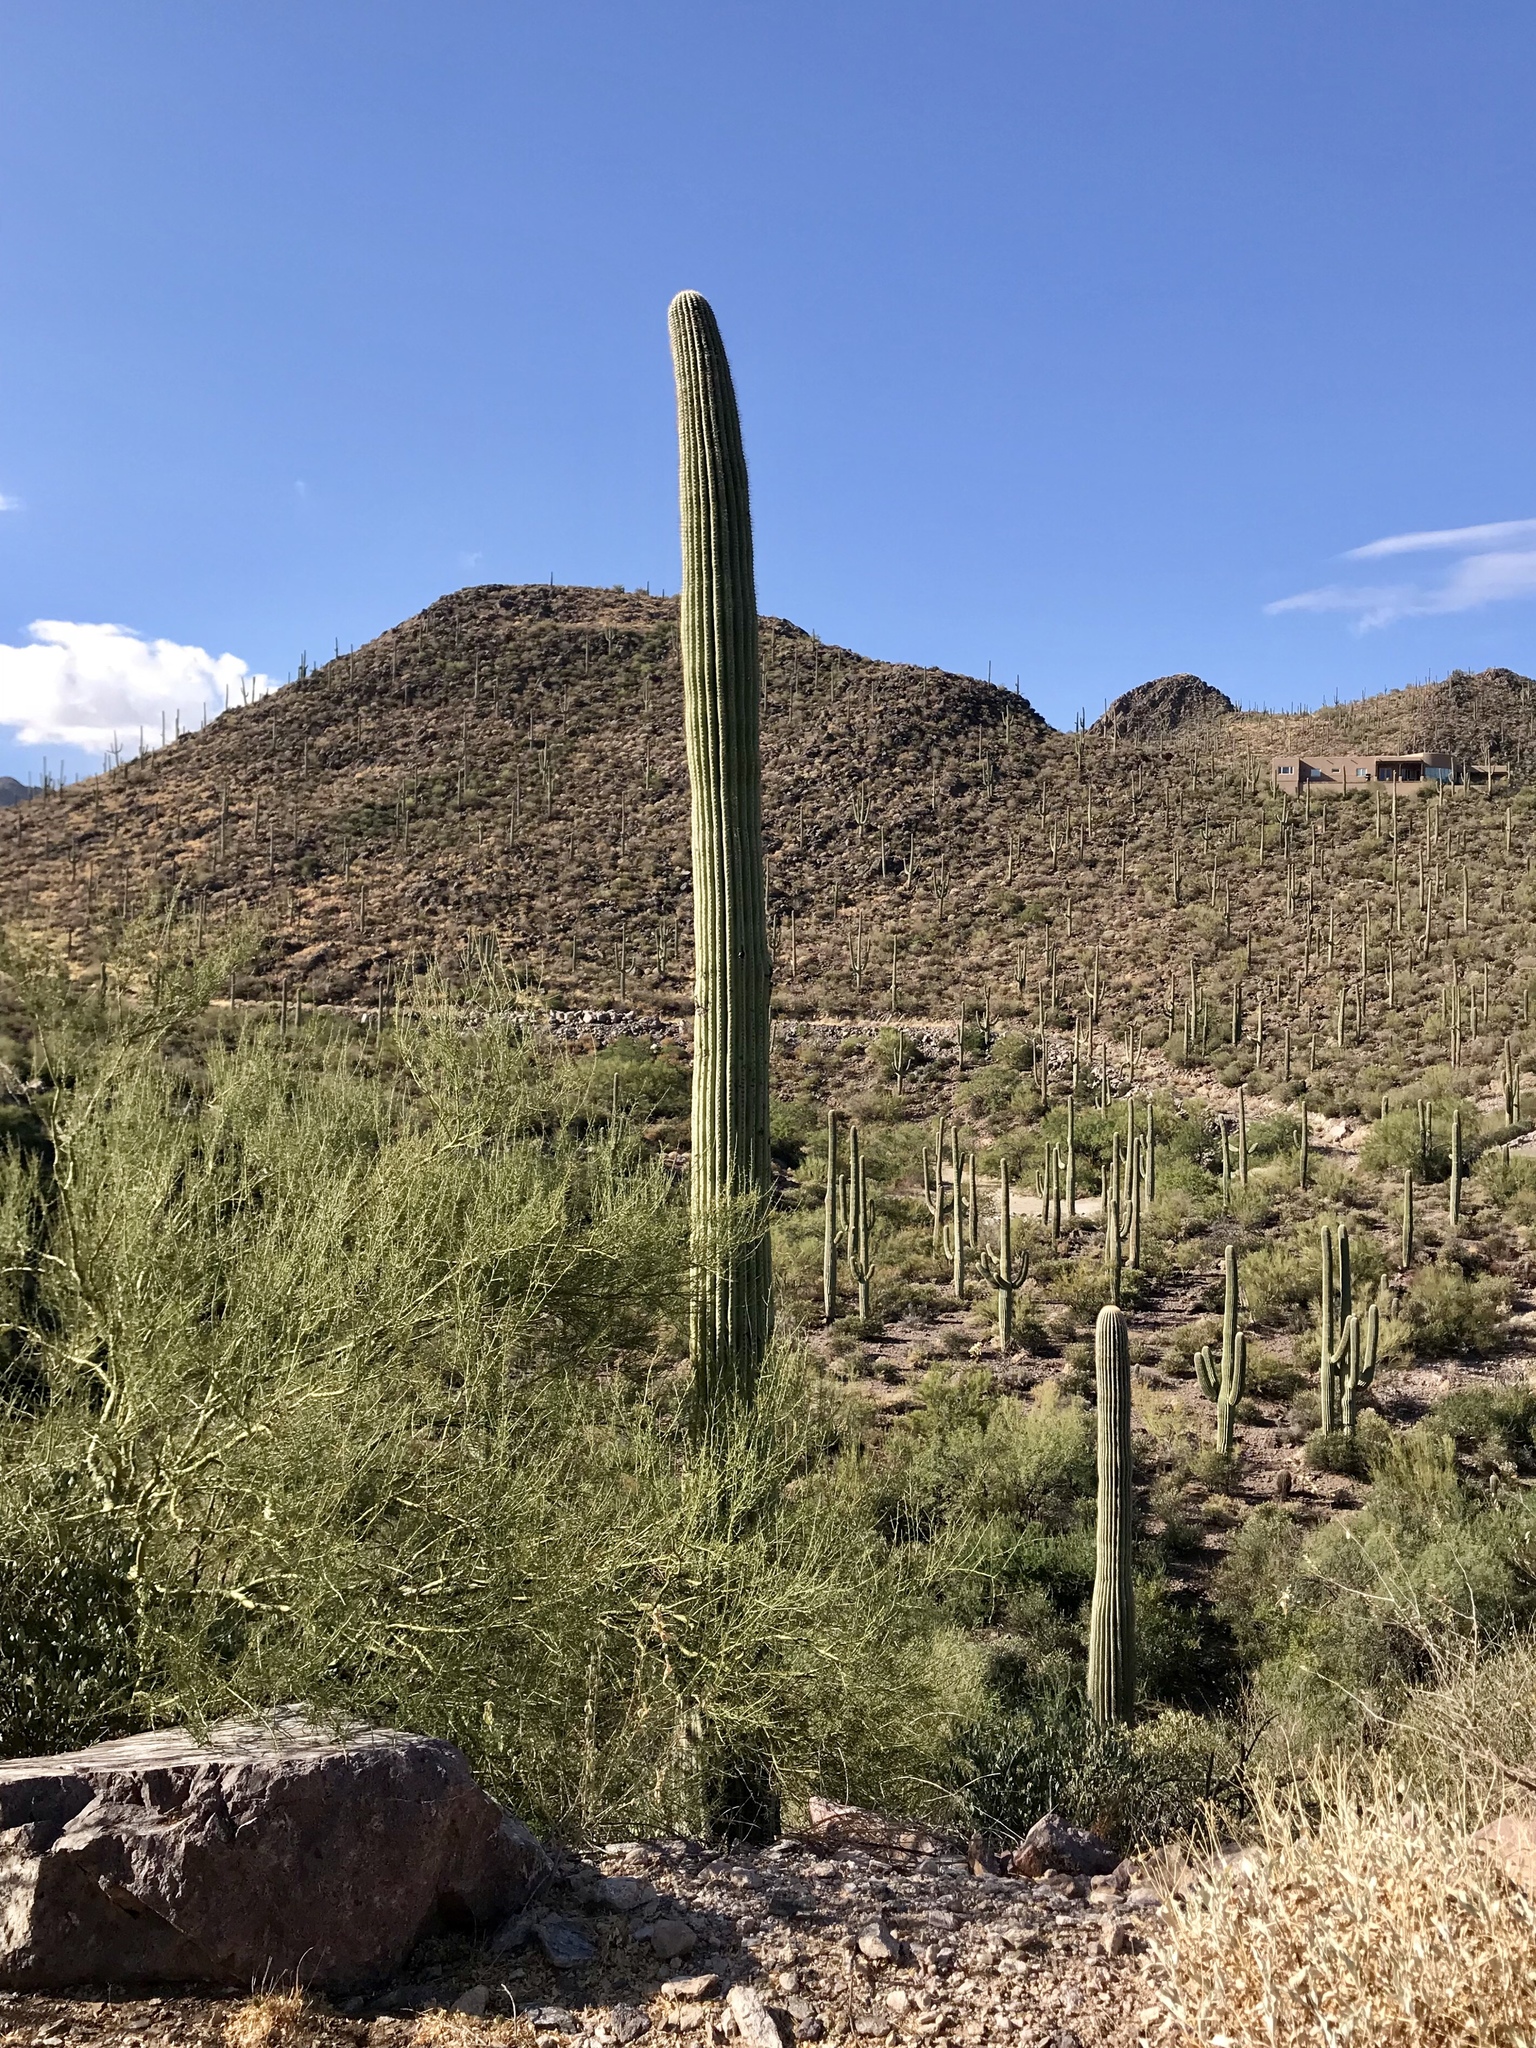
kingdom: Plantae
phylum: Tracheophyta
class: Magnoliopsida
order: Caryophyllales
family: Cactaceae
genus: Carnegiea
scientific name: Carnegiea gigantea
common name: Saguaro
